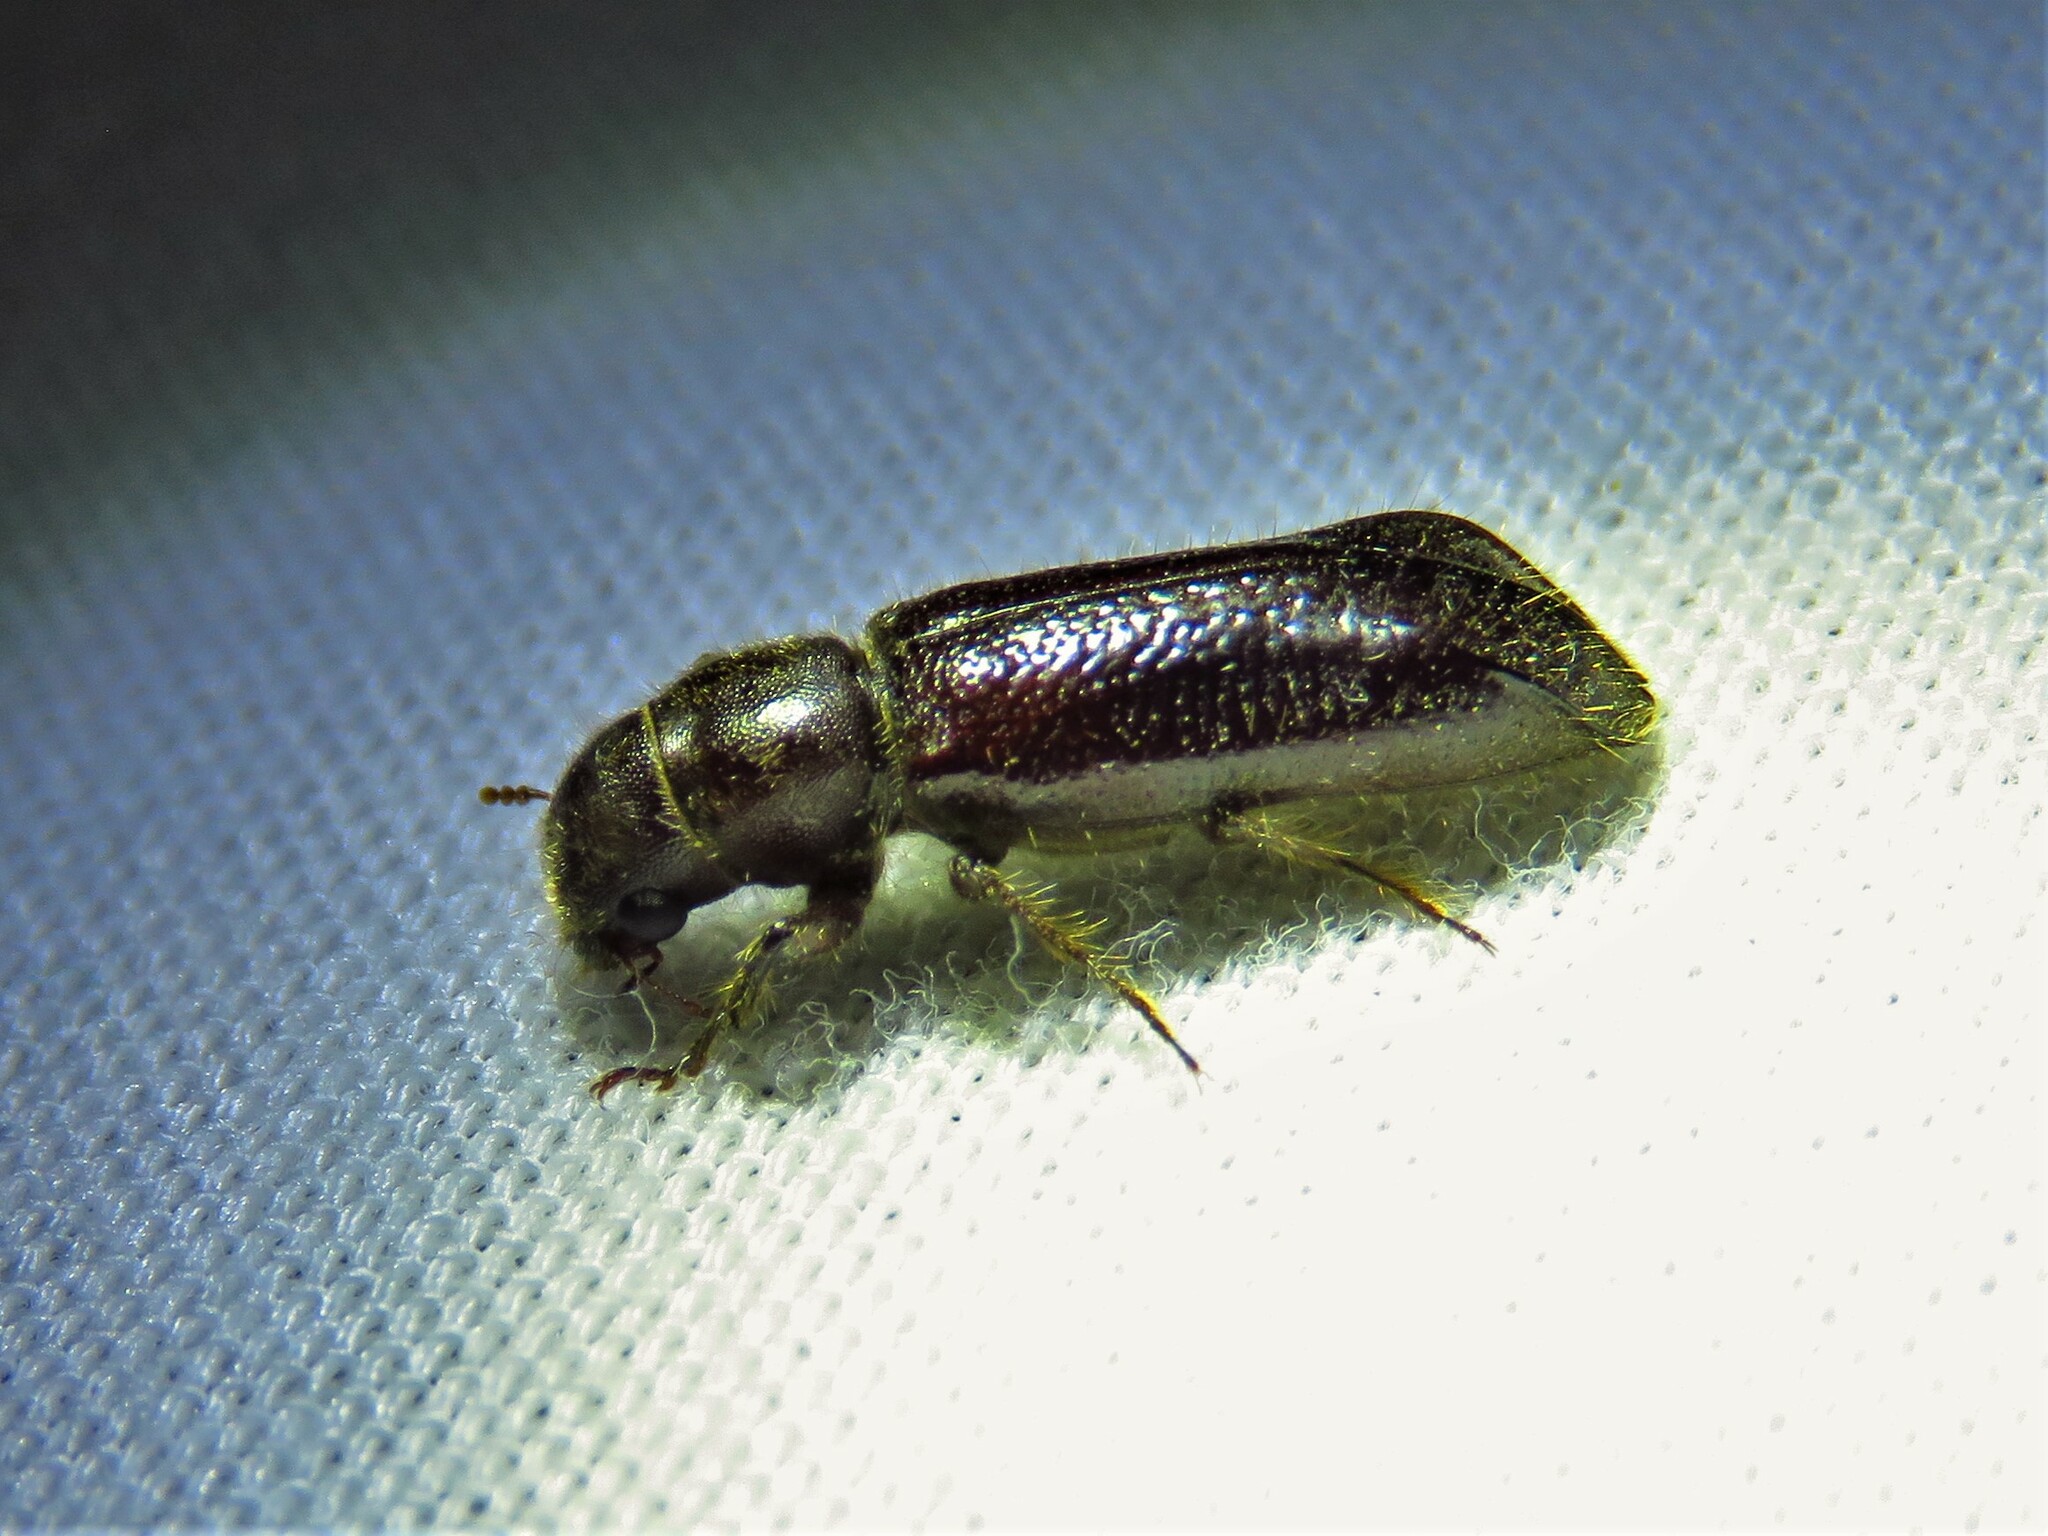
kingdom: Animalia
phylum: Arthropoda
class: Insecta
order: Coleoptera
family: Bostrichidae
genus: Melalgus
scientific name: Melalgus plicatus
